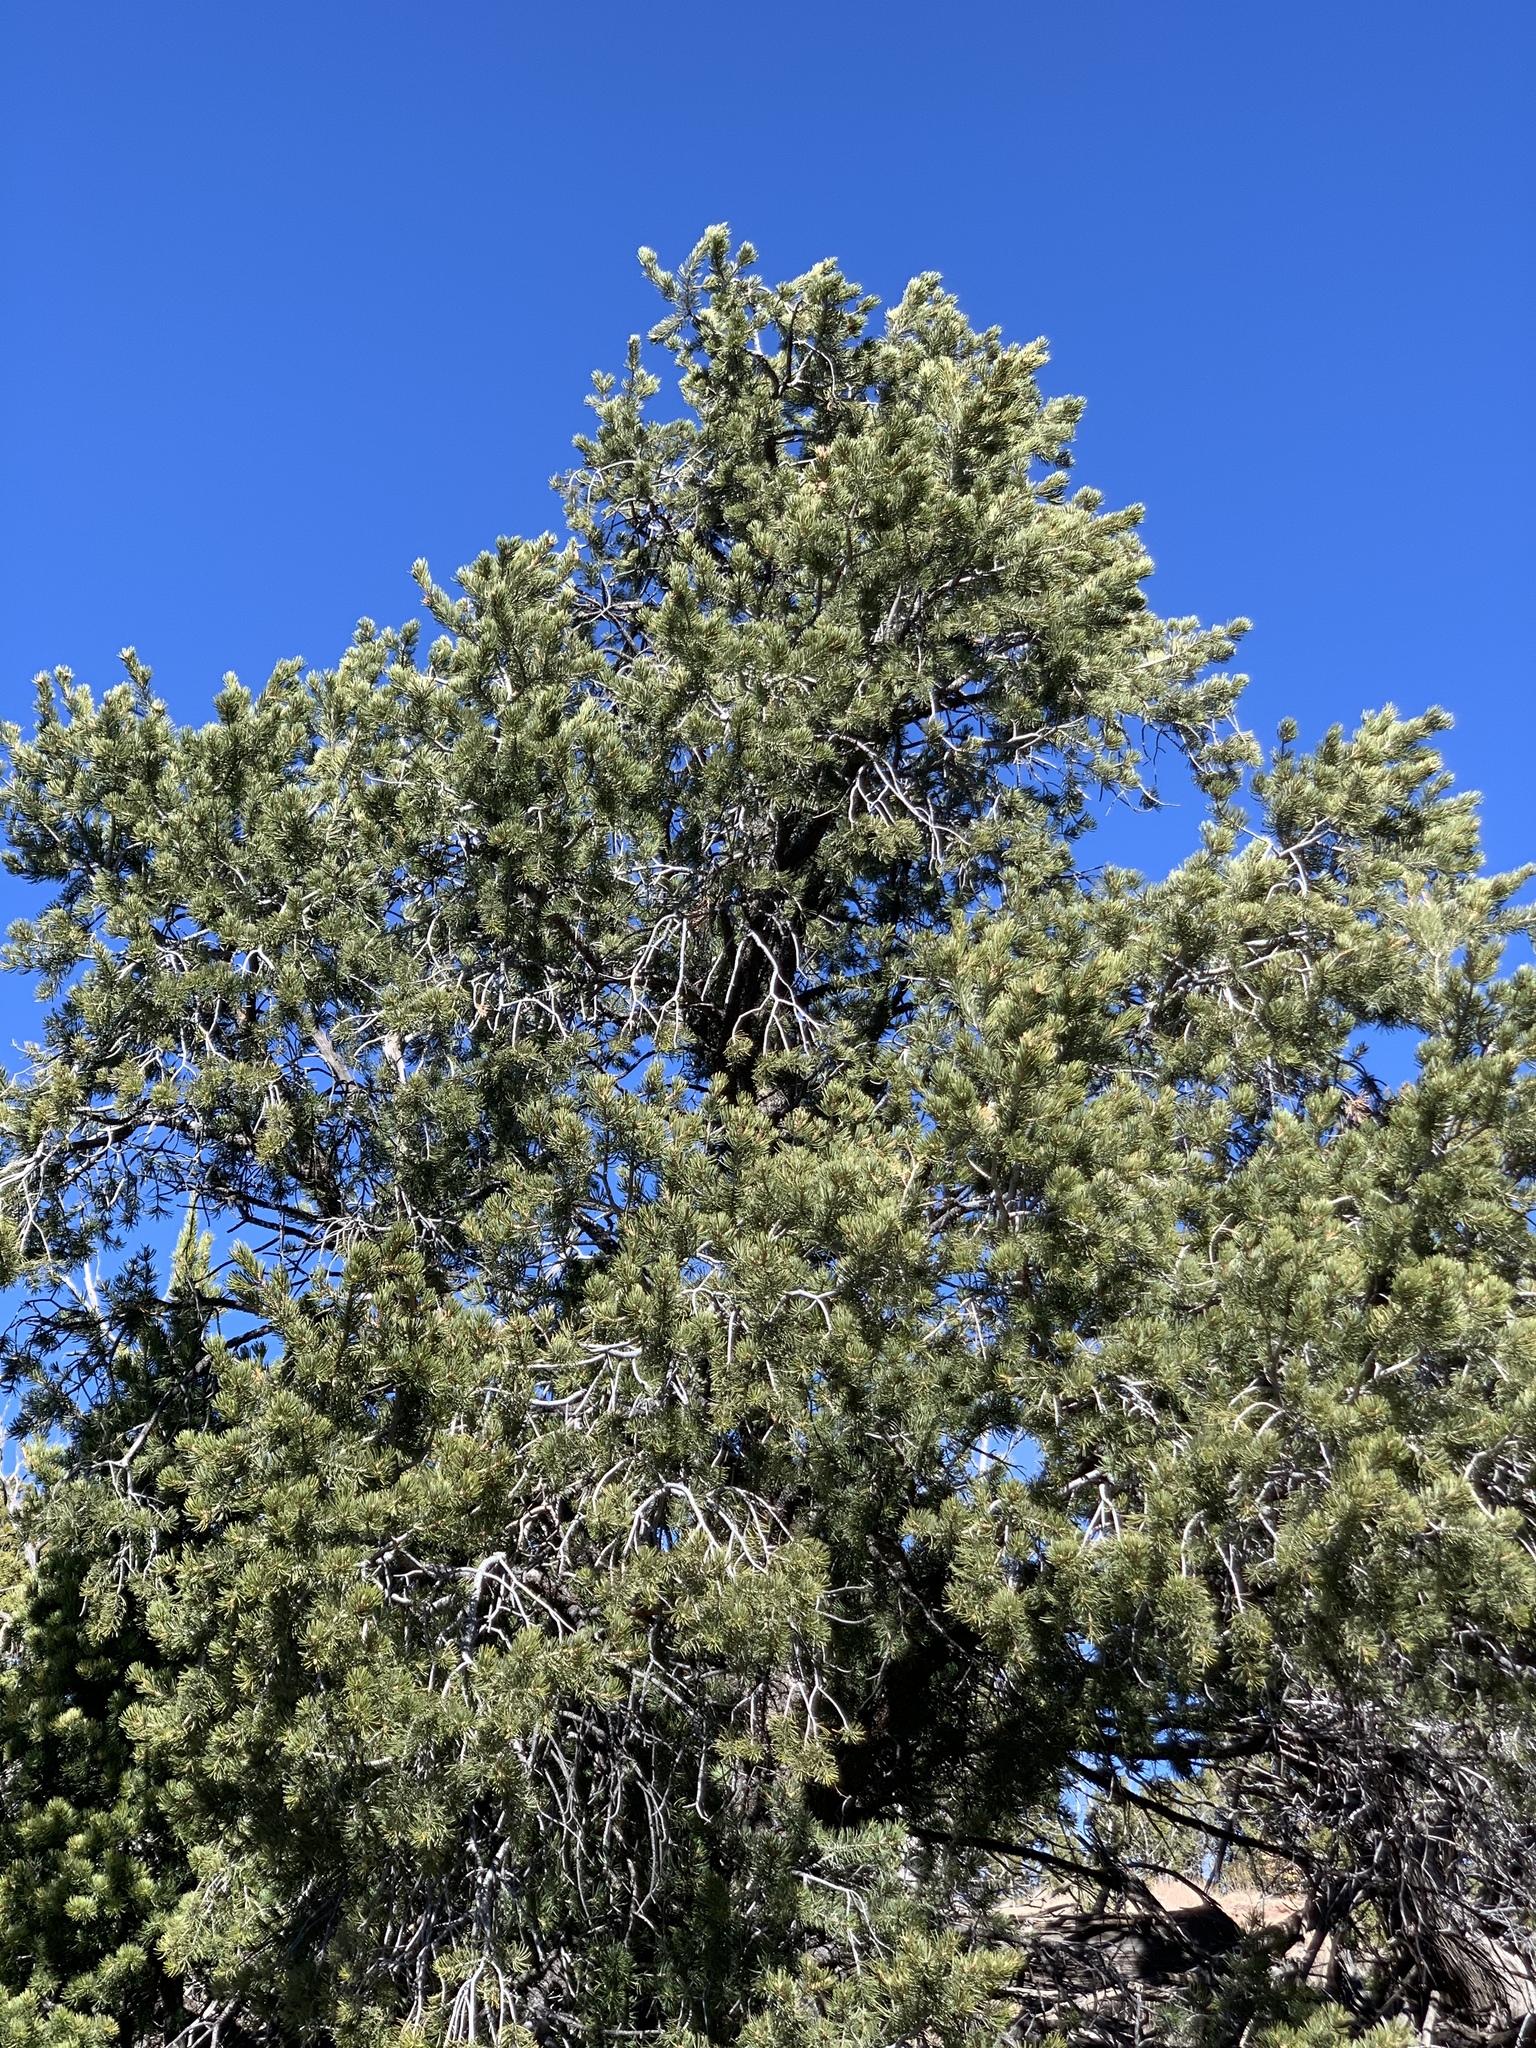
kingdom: Plantae
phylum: Tracheophyta
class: Pinopsida
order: Pinales
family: Pinaceae
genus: Pinus
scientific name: Pinus edulis
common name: Colorado pinyon
